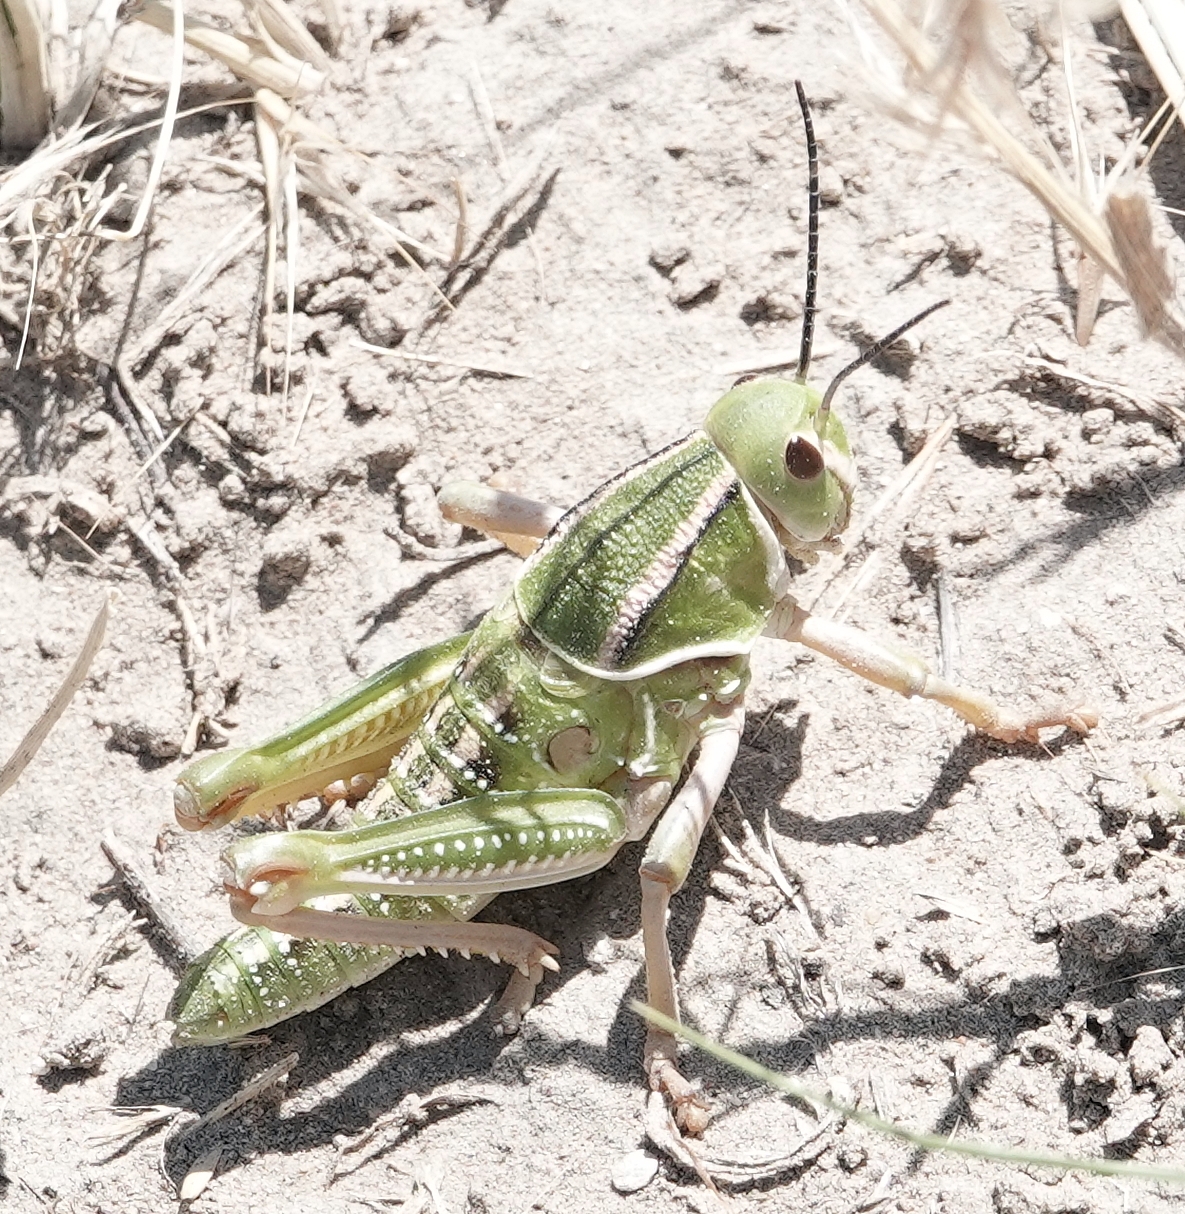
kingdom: Animalia
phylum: Arthropoda
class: Insecta
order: Orthoptera
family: Romaleidae
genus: Brachystola
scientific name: Brachystola magna
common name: Plains lubber grasshopper
